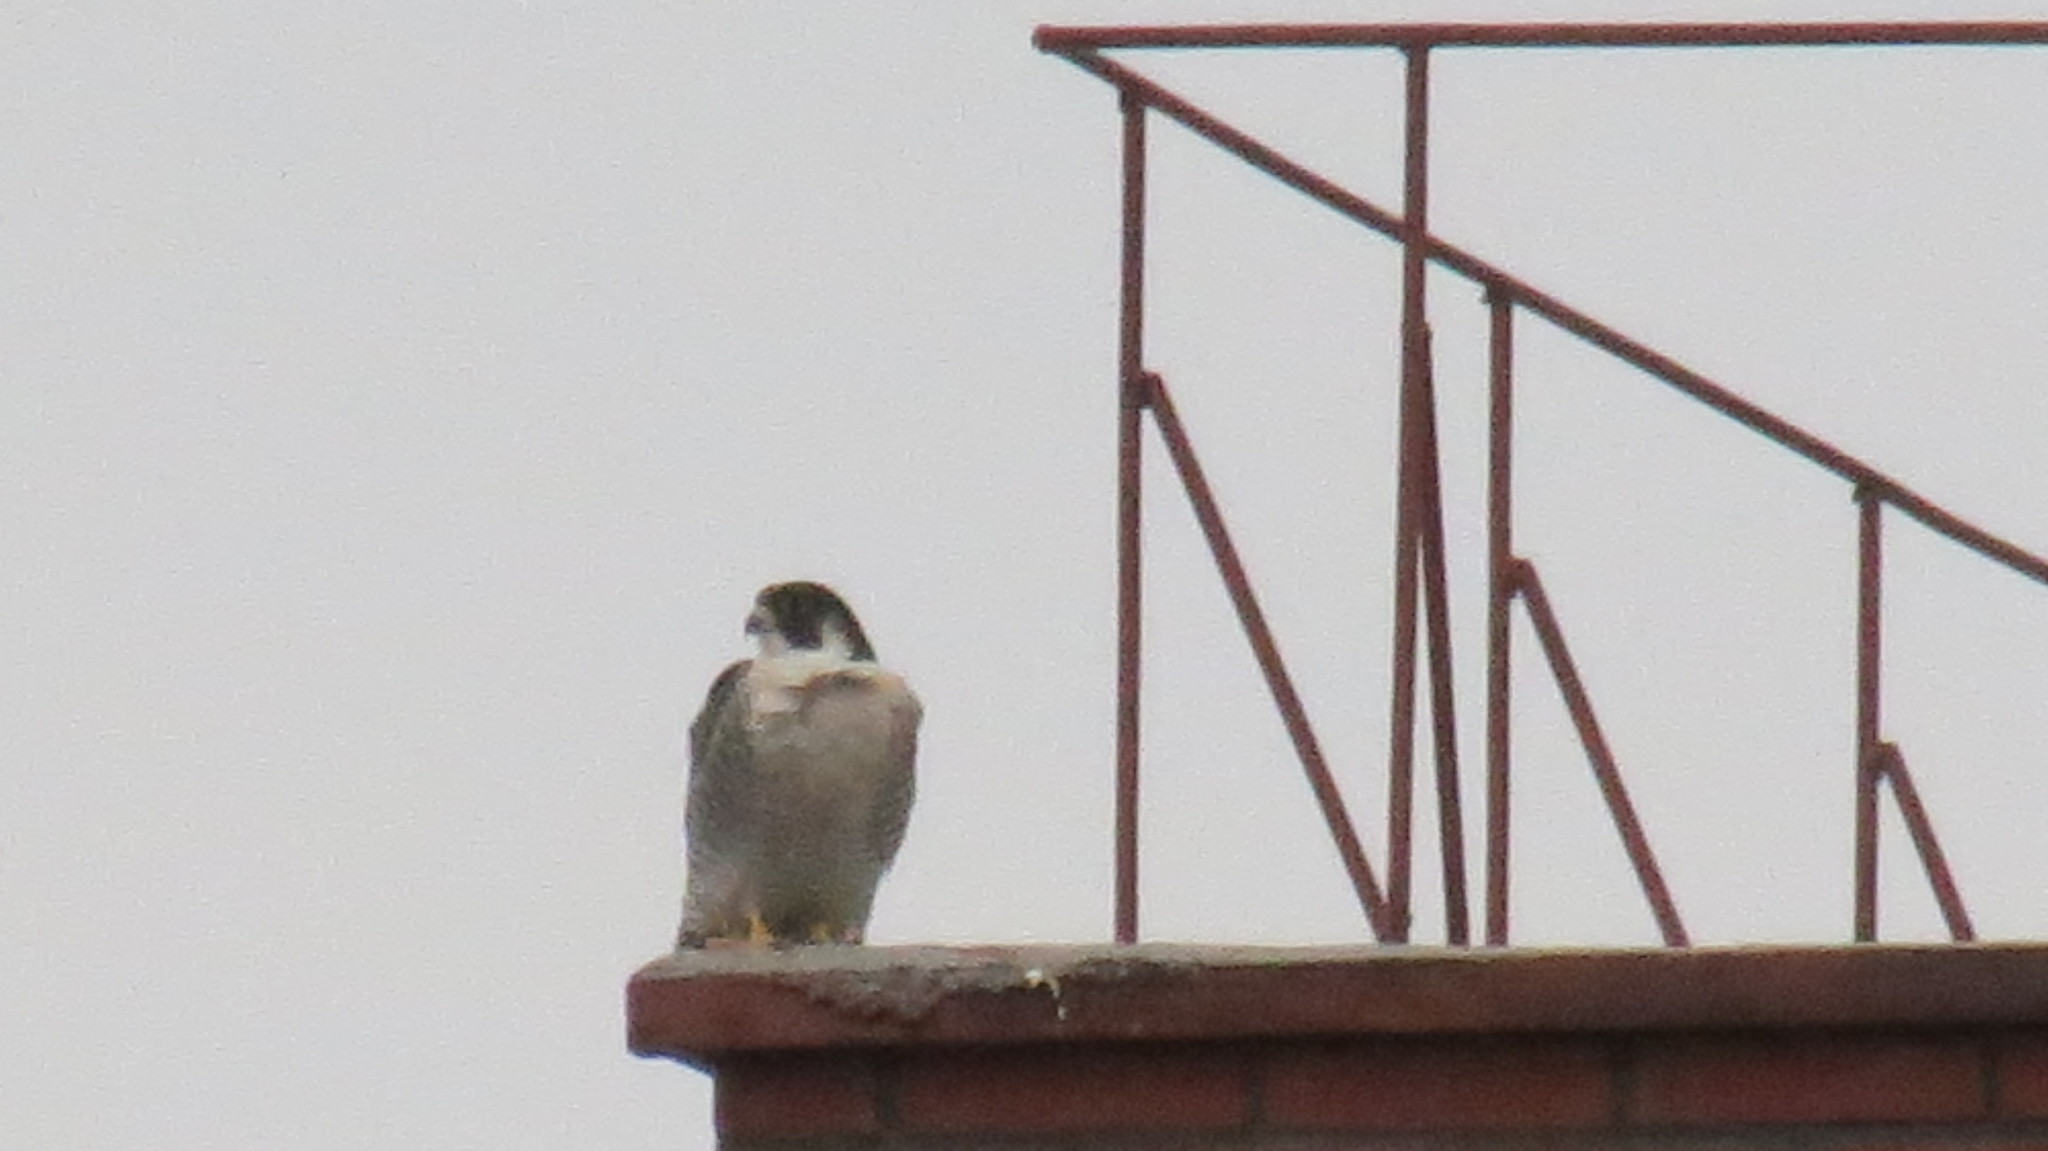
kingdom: Animalia
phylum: Chordata
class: Aves
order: Falconiformes
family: Falconidae
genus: Falco
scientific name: Falco peregrinus
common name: Peregrine falcon
